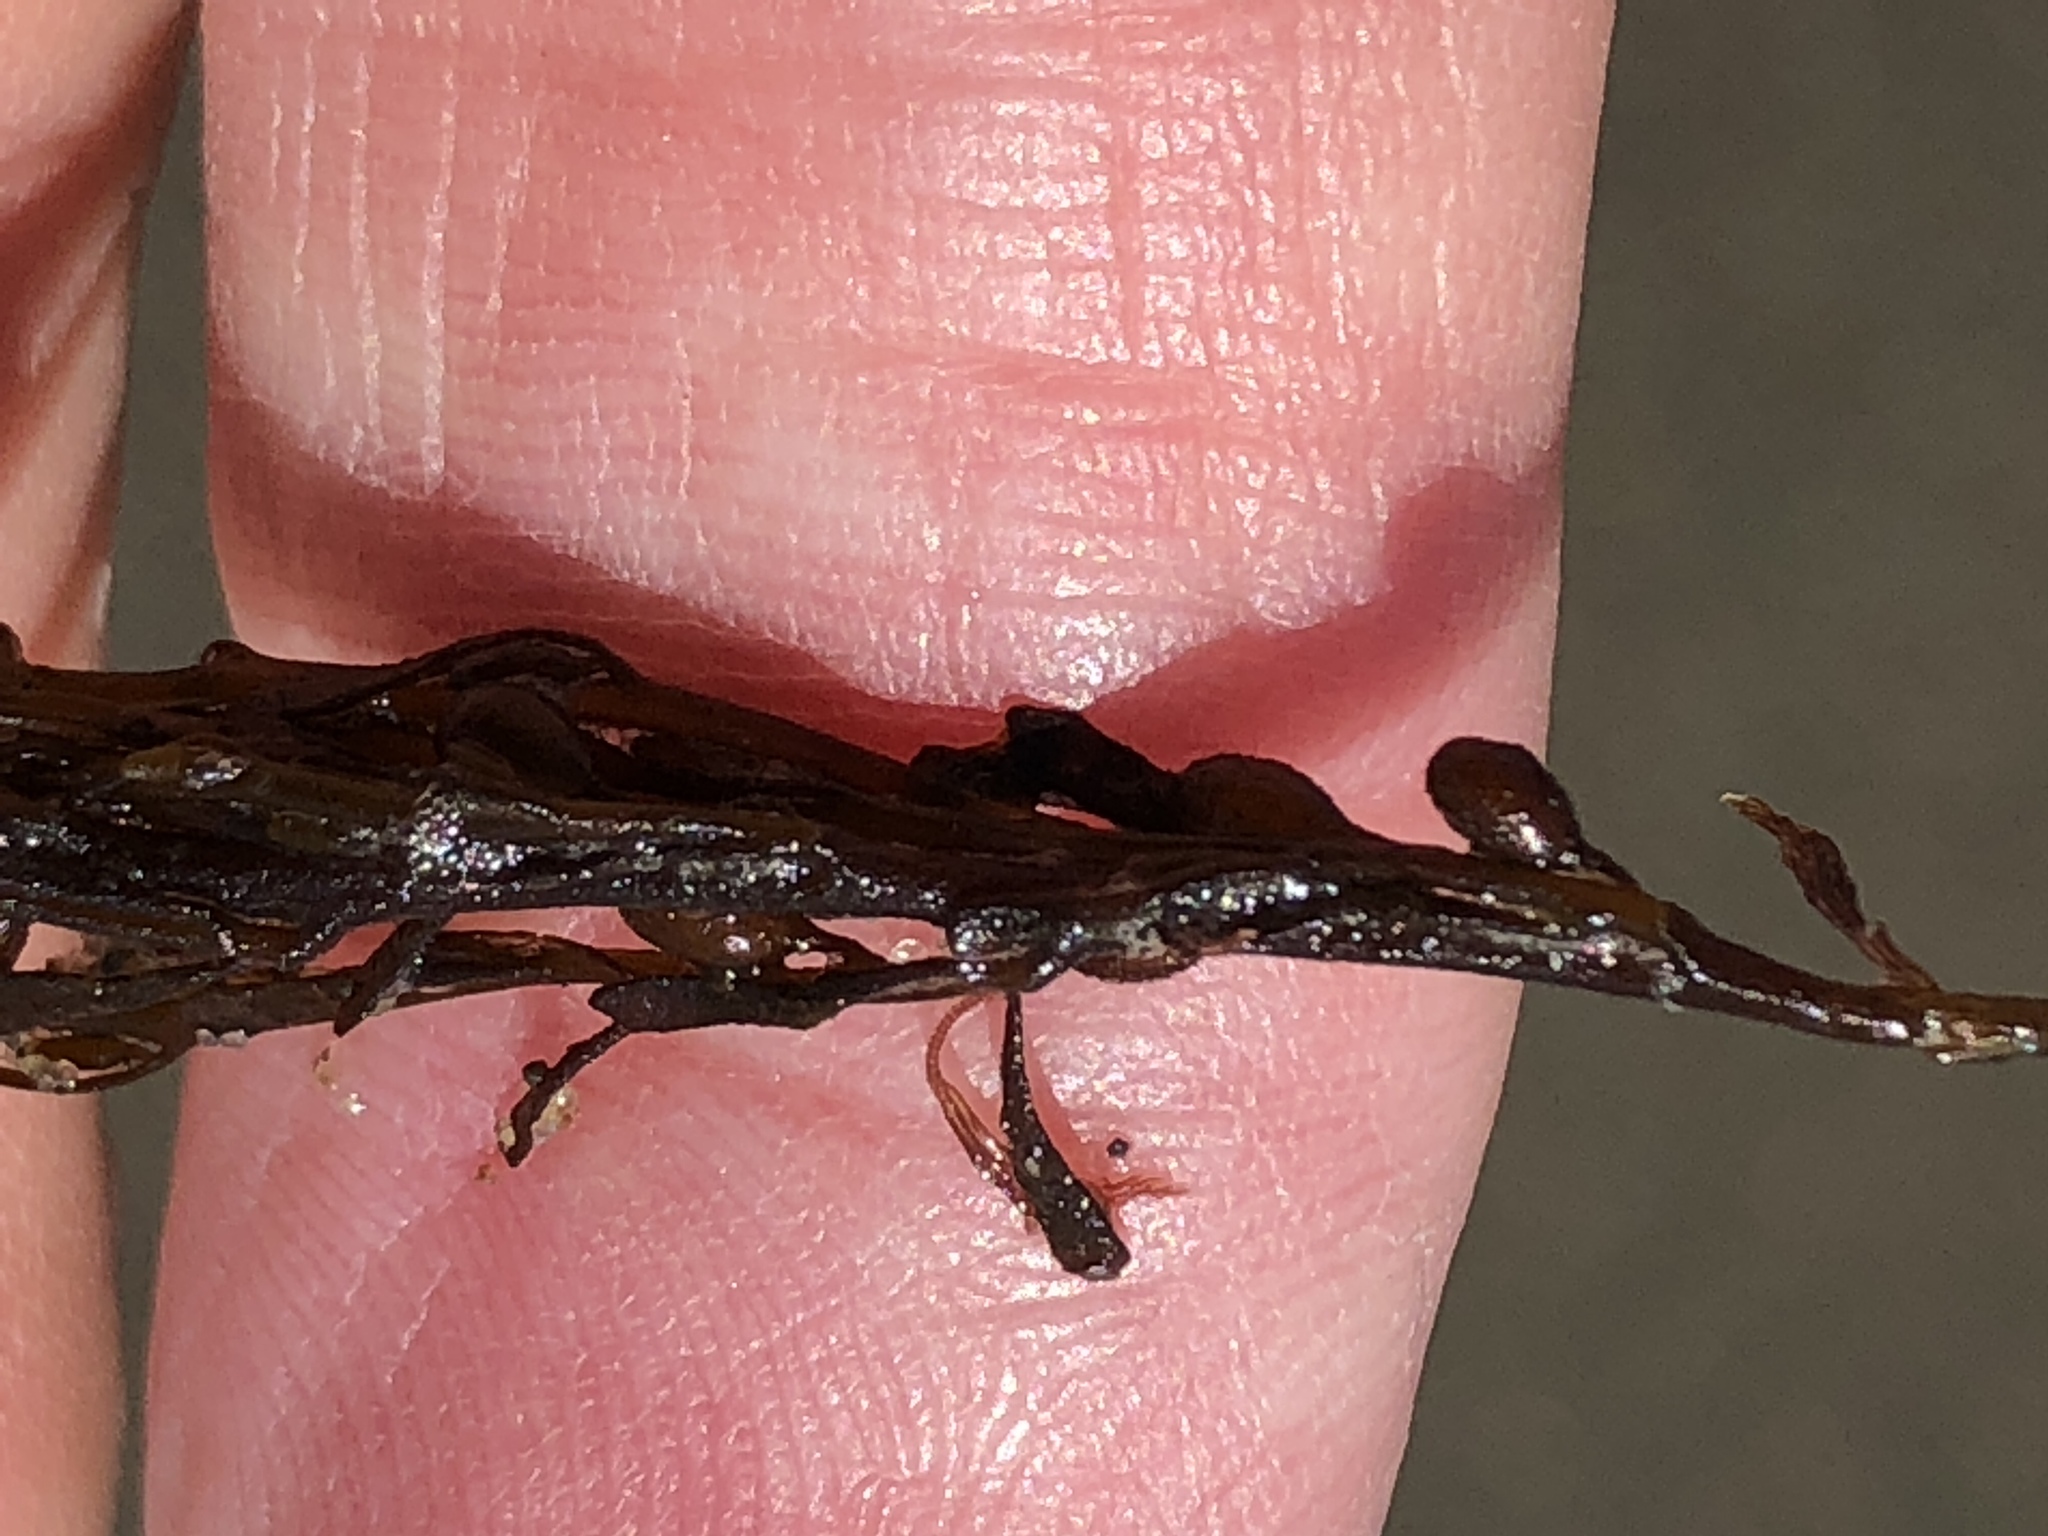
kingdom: Chromista
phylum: Ochrophyta
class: Phaeophyceae
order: Fucales
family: Sargassaceae
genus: Sargassum
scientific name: Sargassum muticum
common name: Japweed
